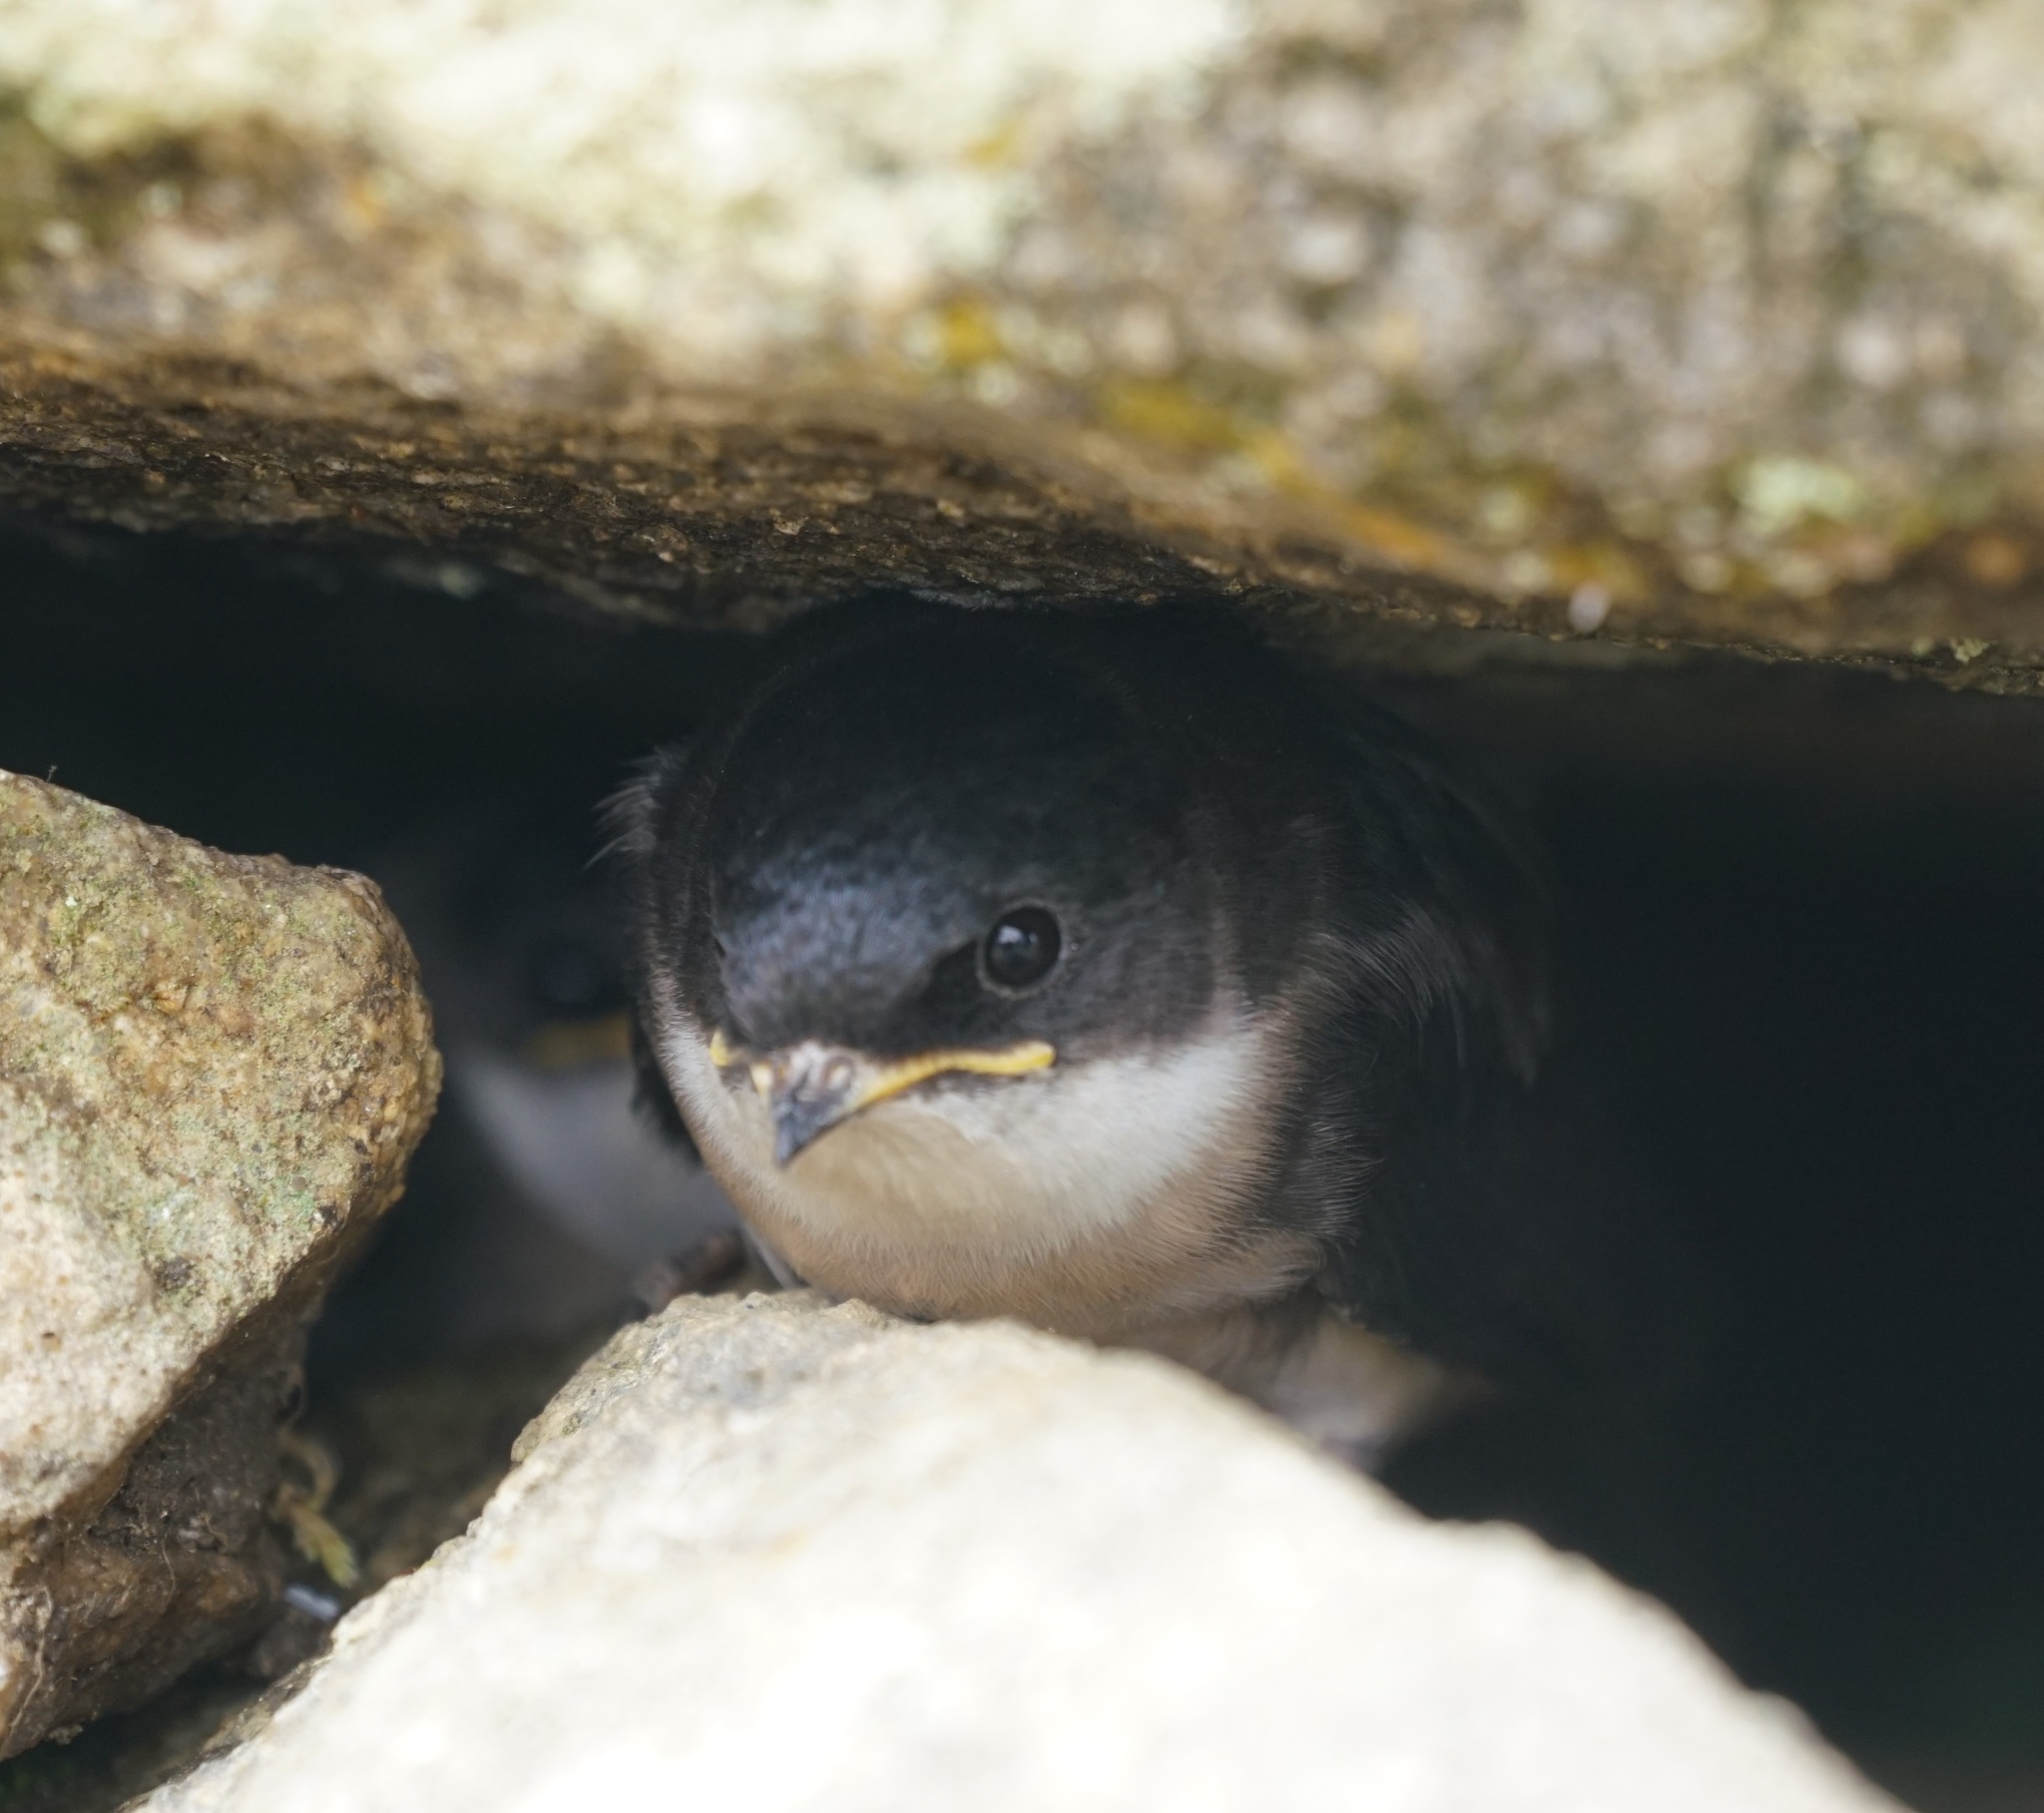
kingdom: Animalia
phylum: Chordata
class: Aves
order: Passeriformes
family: Hirundinidae
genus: Notiochelidon
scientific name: Notiochelidon cyanoleuca
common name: Blue-and-white swallow
